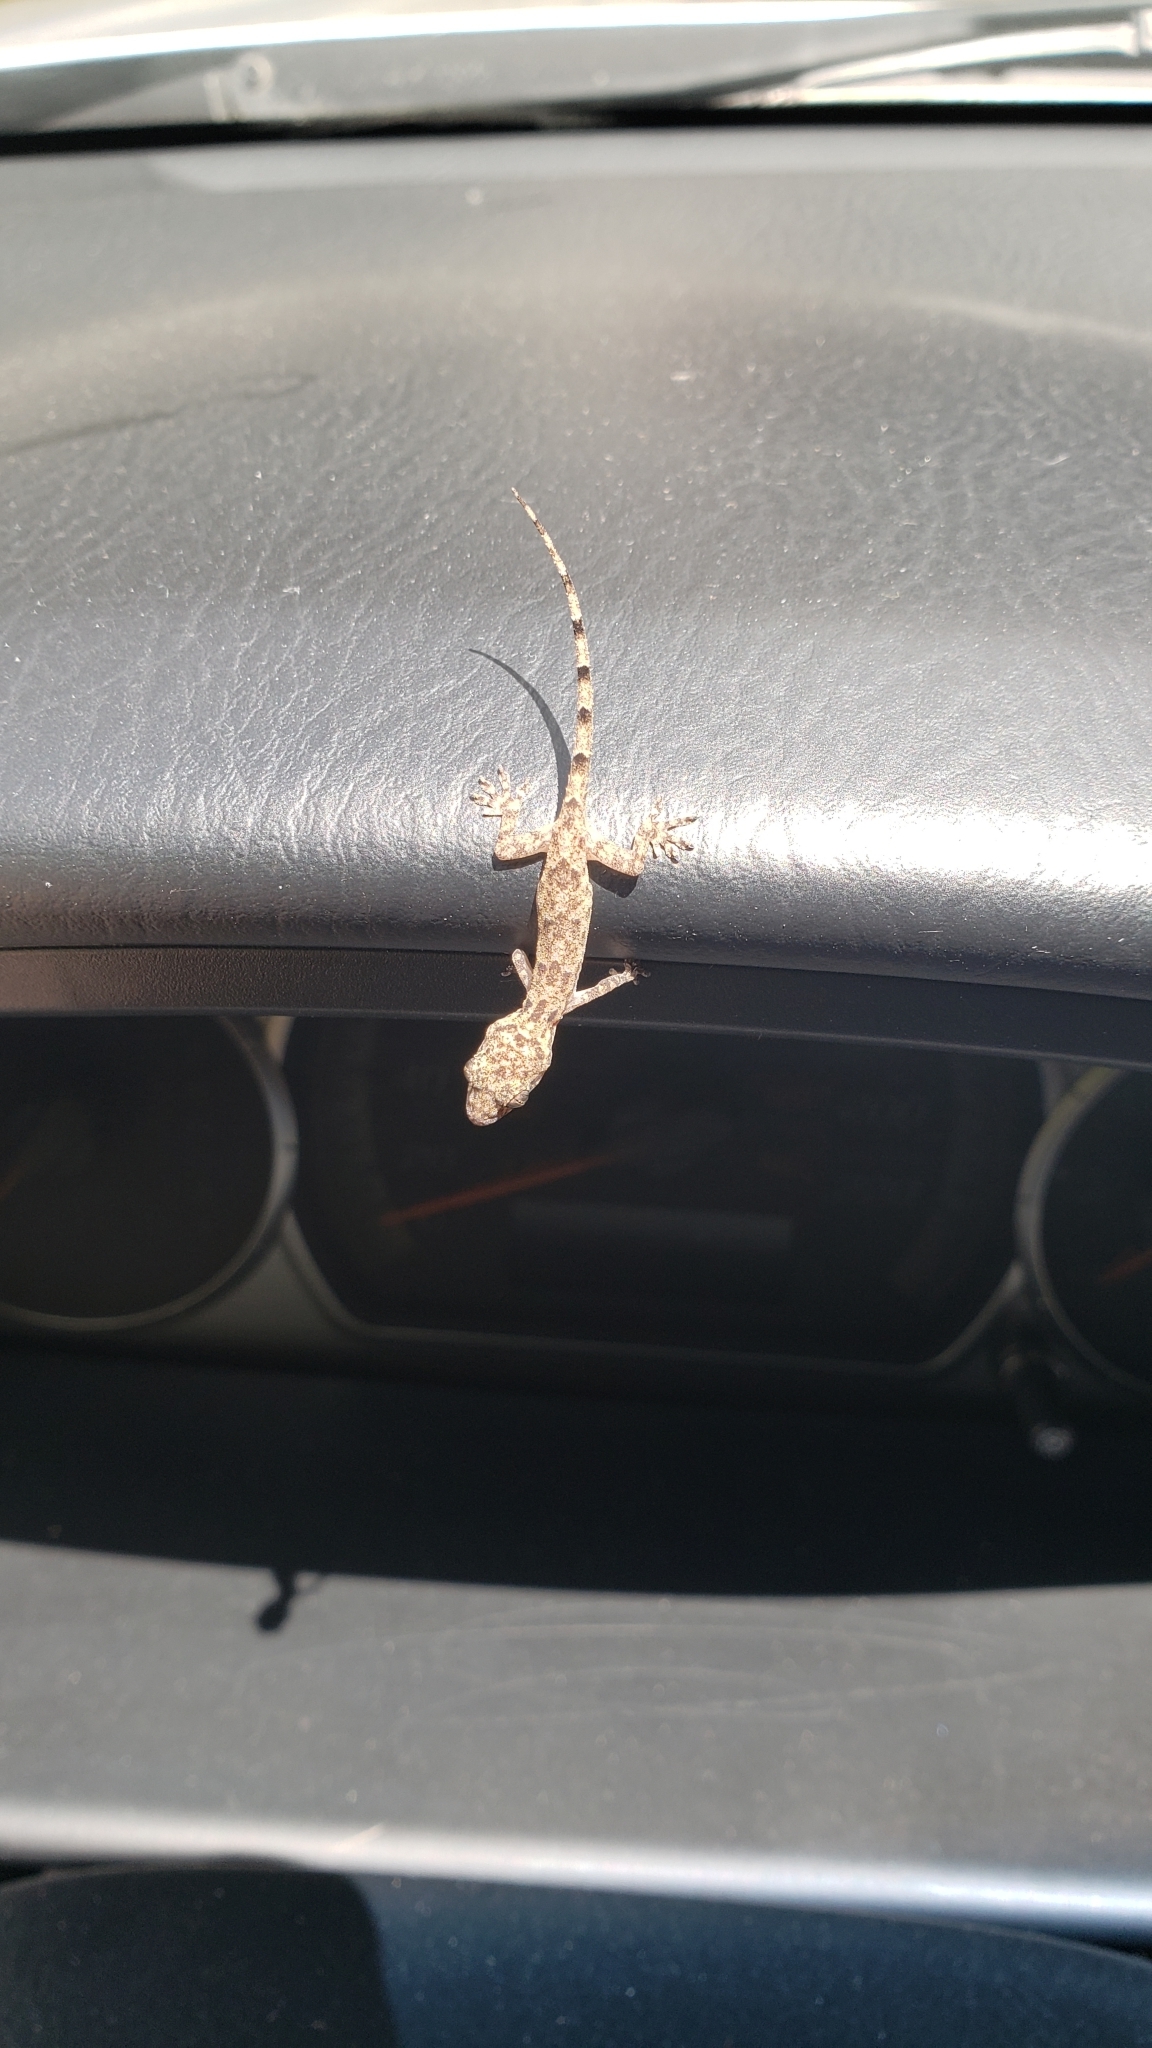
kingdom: Animalia
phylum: Chordata
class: Squamata
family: Gekkonidae
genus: Hemidactylus
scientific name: Hemidactylus mabouia
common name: House gecko
